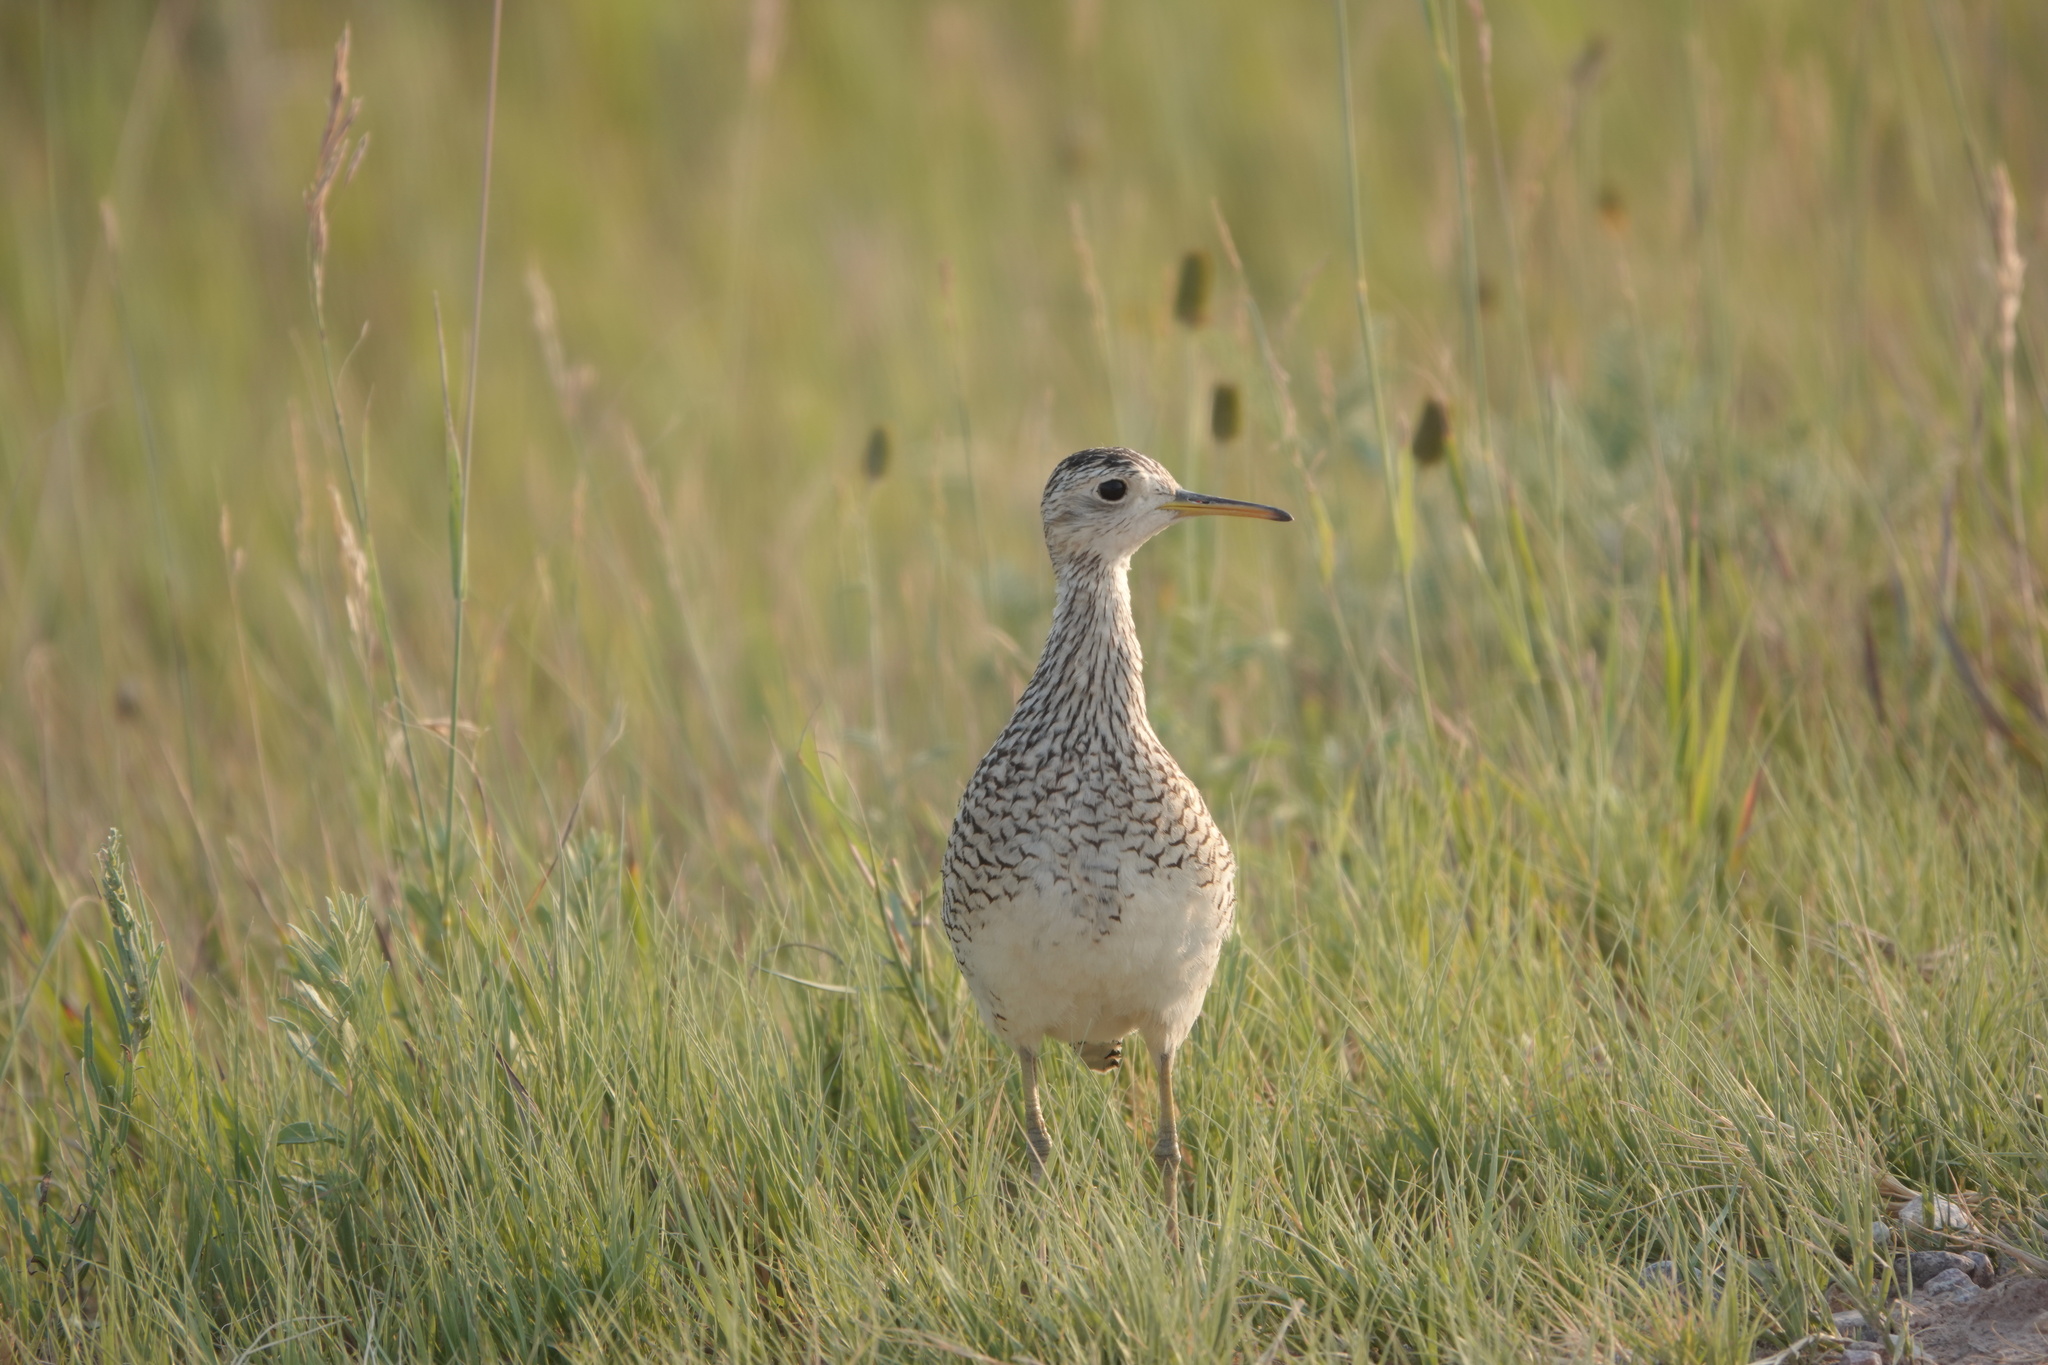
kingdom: Animalia
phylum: Chordata
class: Aves
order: Charadriiformes
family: Scolopacidae
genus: Bartramia
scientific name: Bartramia longicauda
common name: Upland sandpiper
